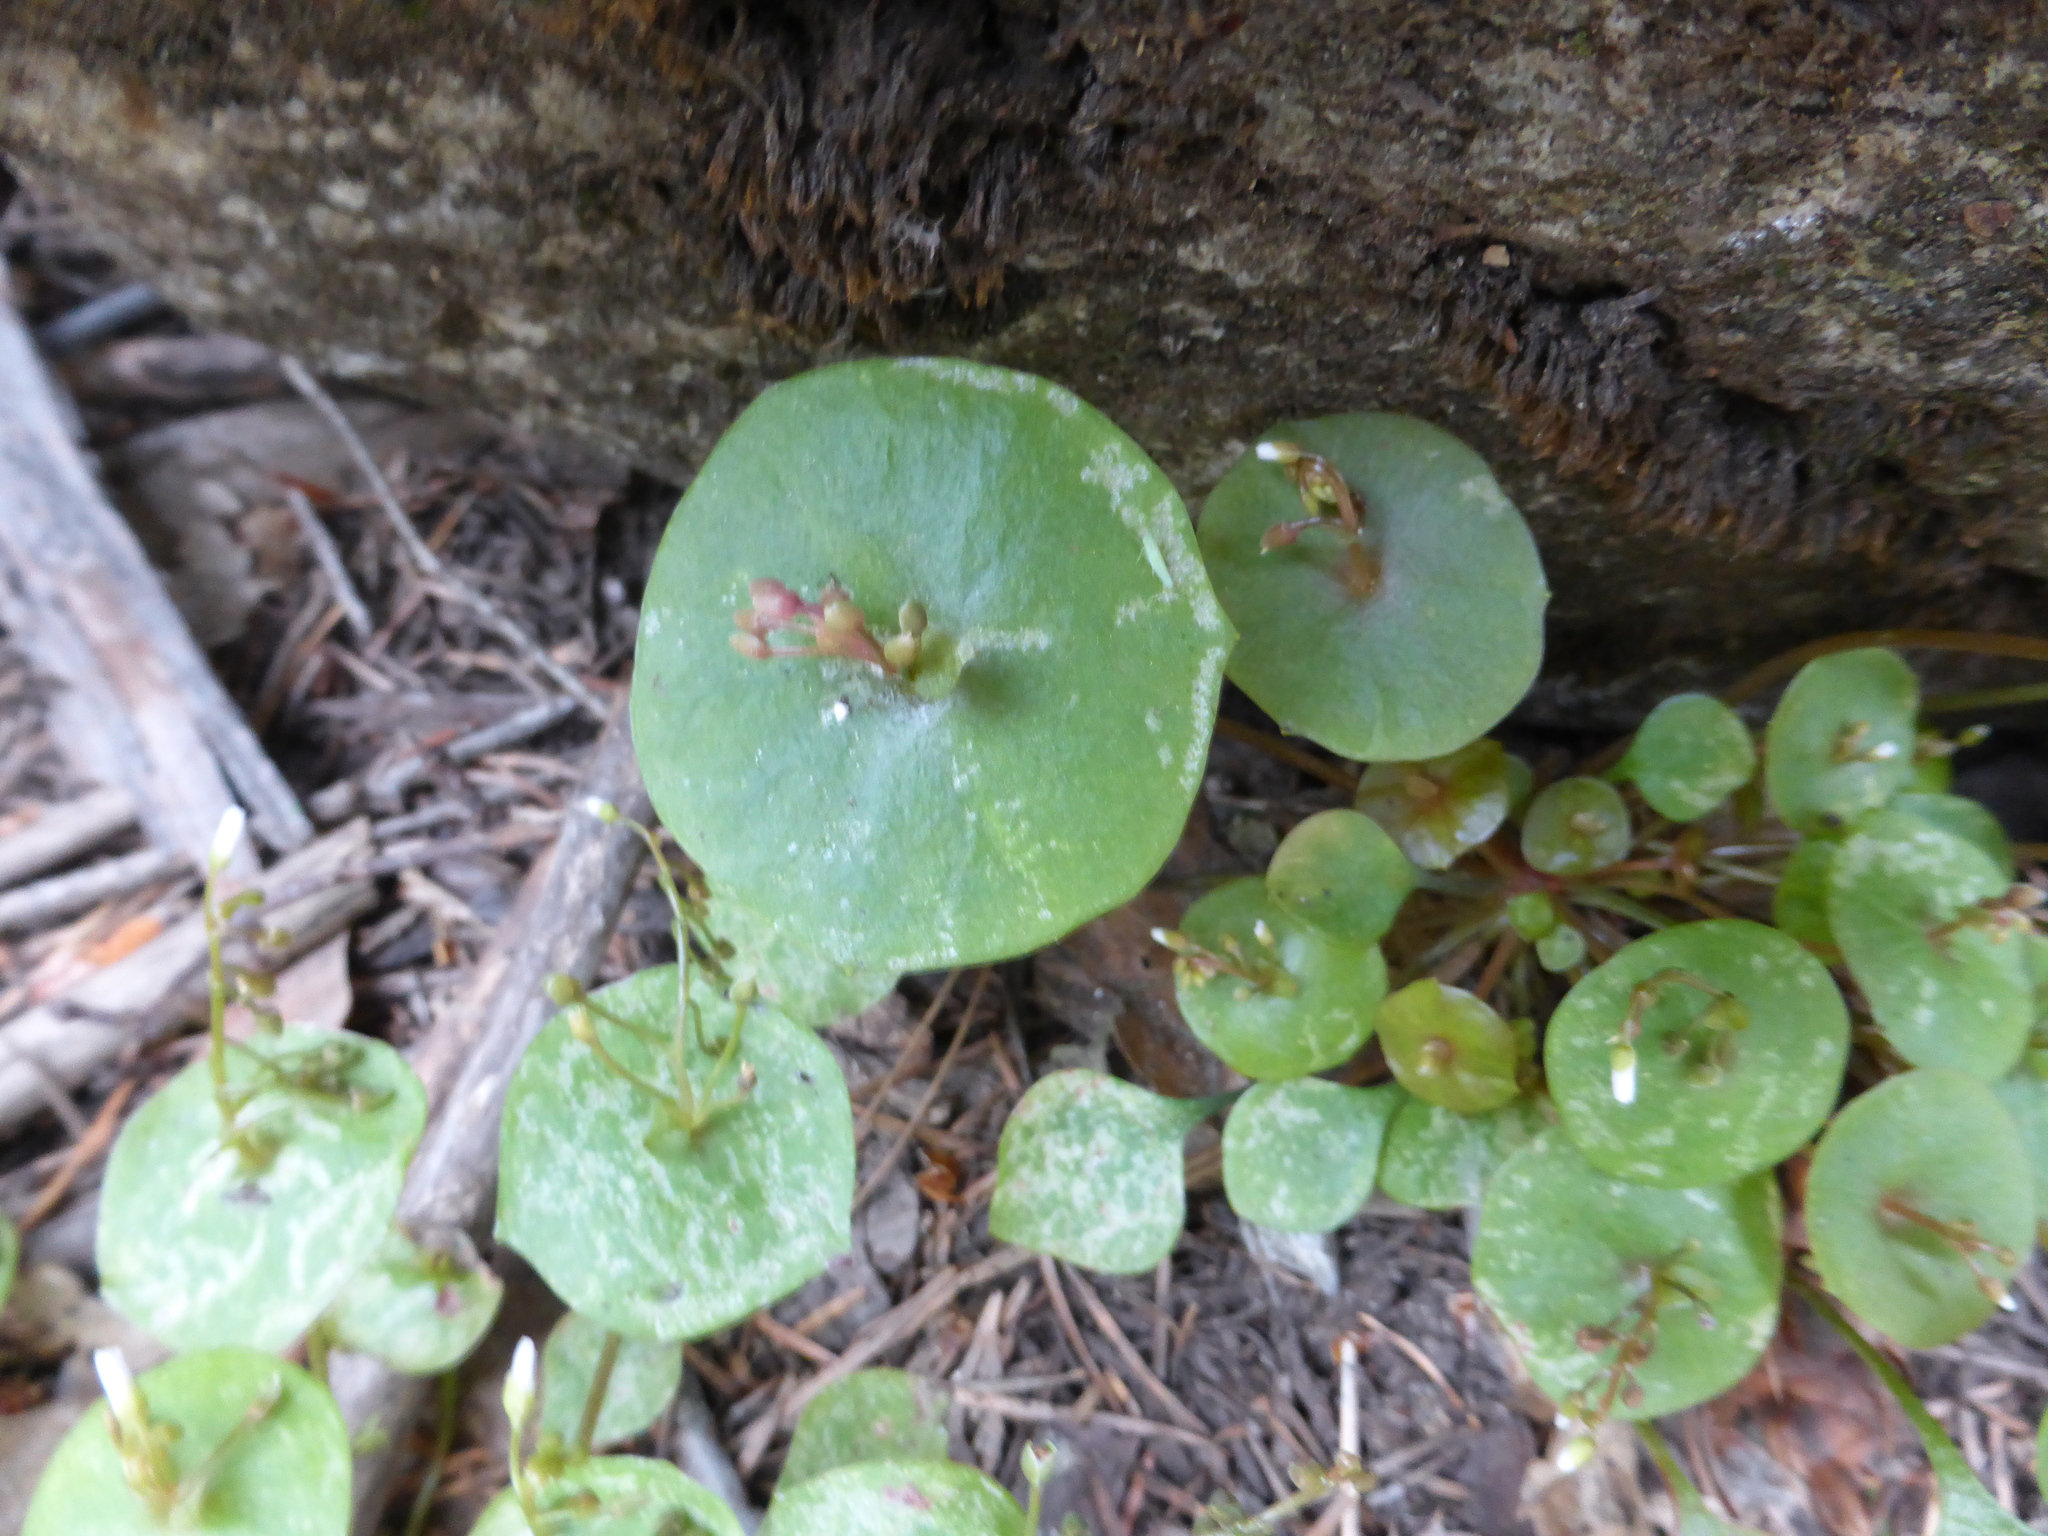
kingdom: Plantae
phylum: Tracheophyta
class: Magnoliopsida
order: Caryophyllales
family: Montiaceae
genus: Claytonia
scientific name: Claytonia perfoliata
